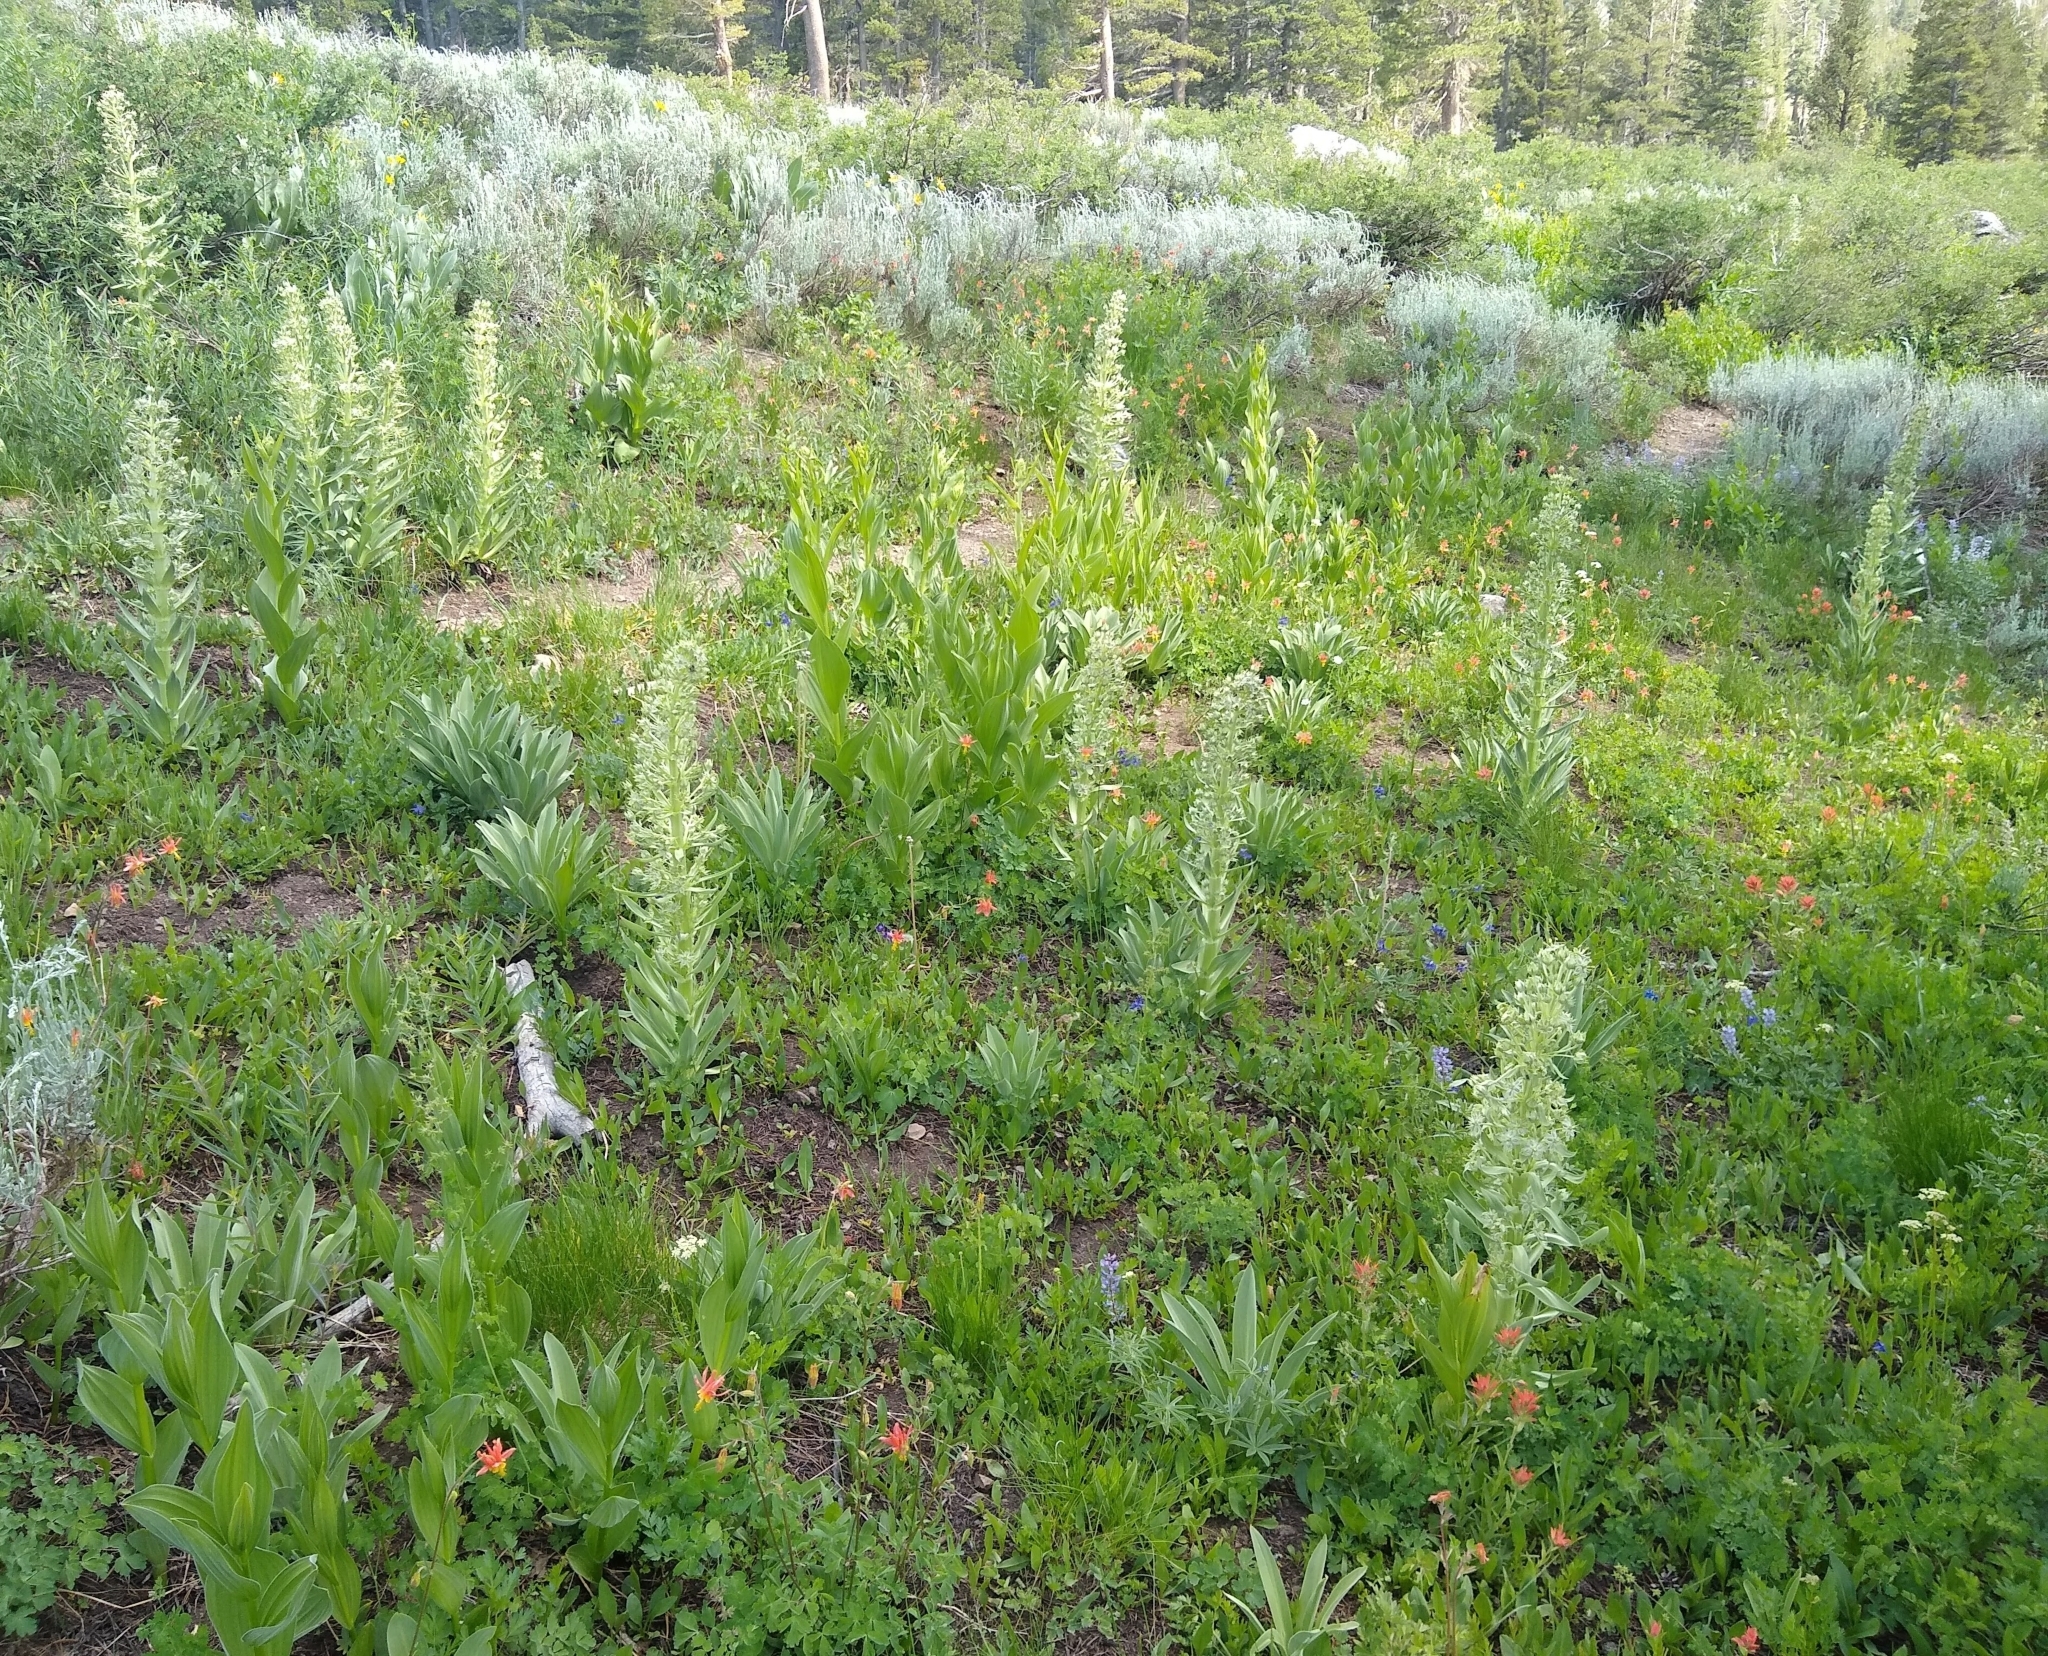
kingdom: Plantae
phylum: Tracheophyta
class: Magnoliopsida
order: Gentianales
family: Gentianaceae
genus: Frasera
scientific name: Frasera speciosa
